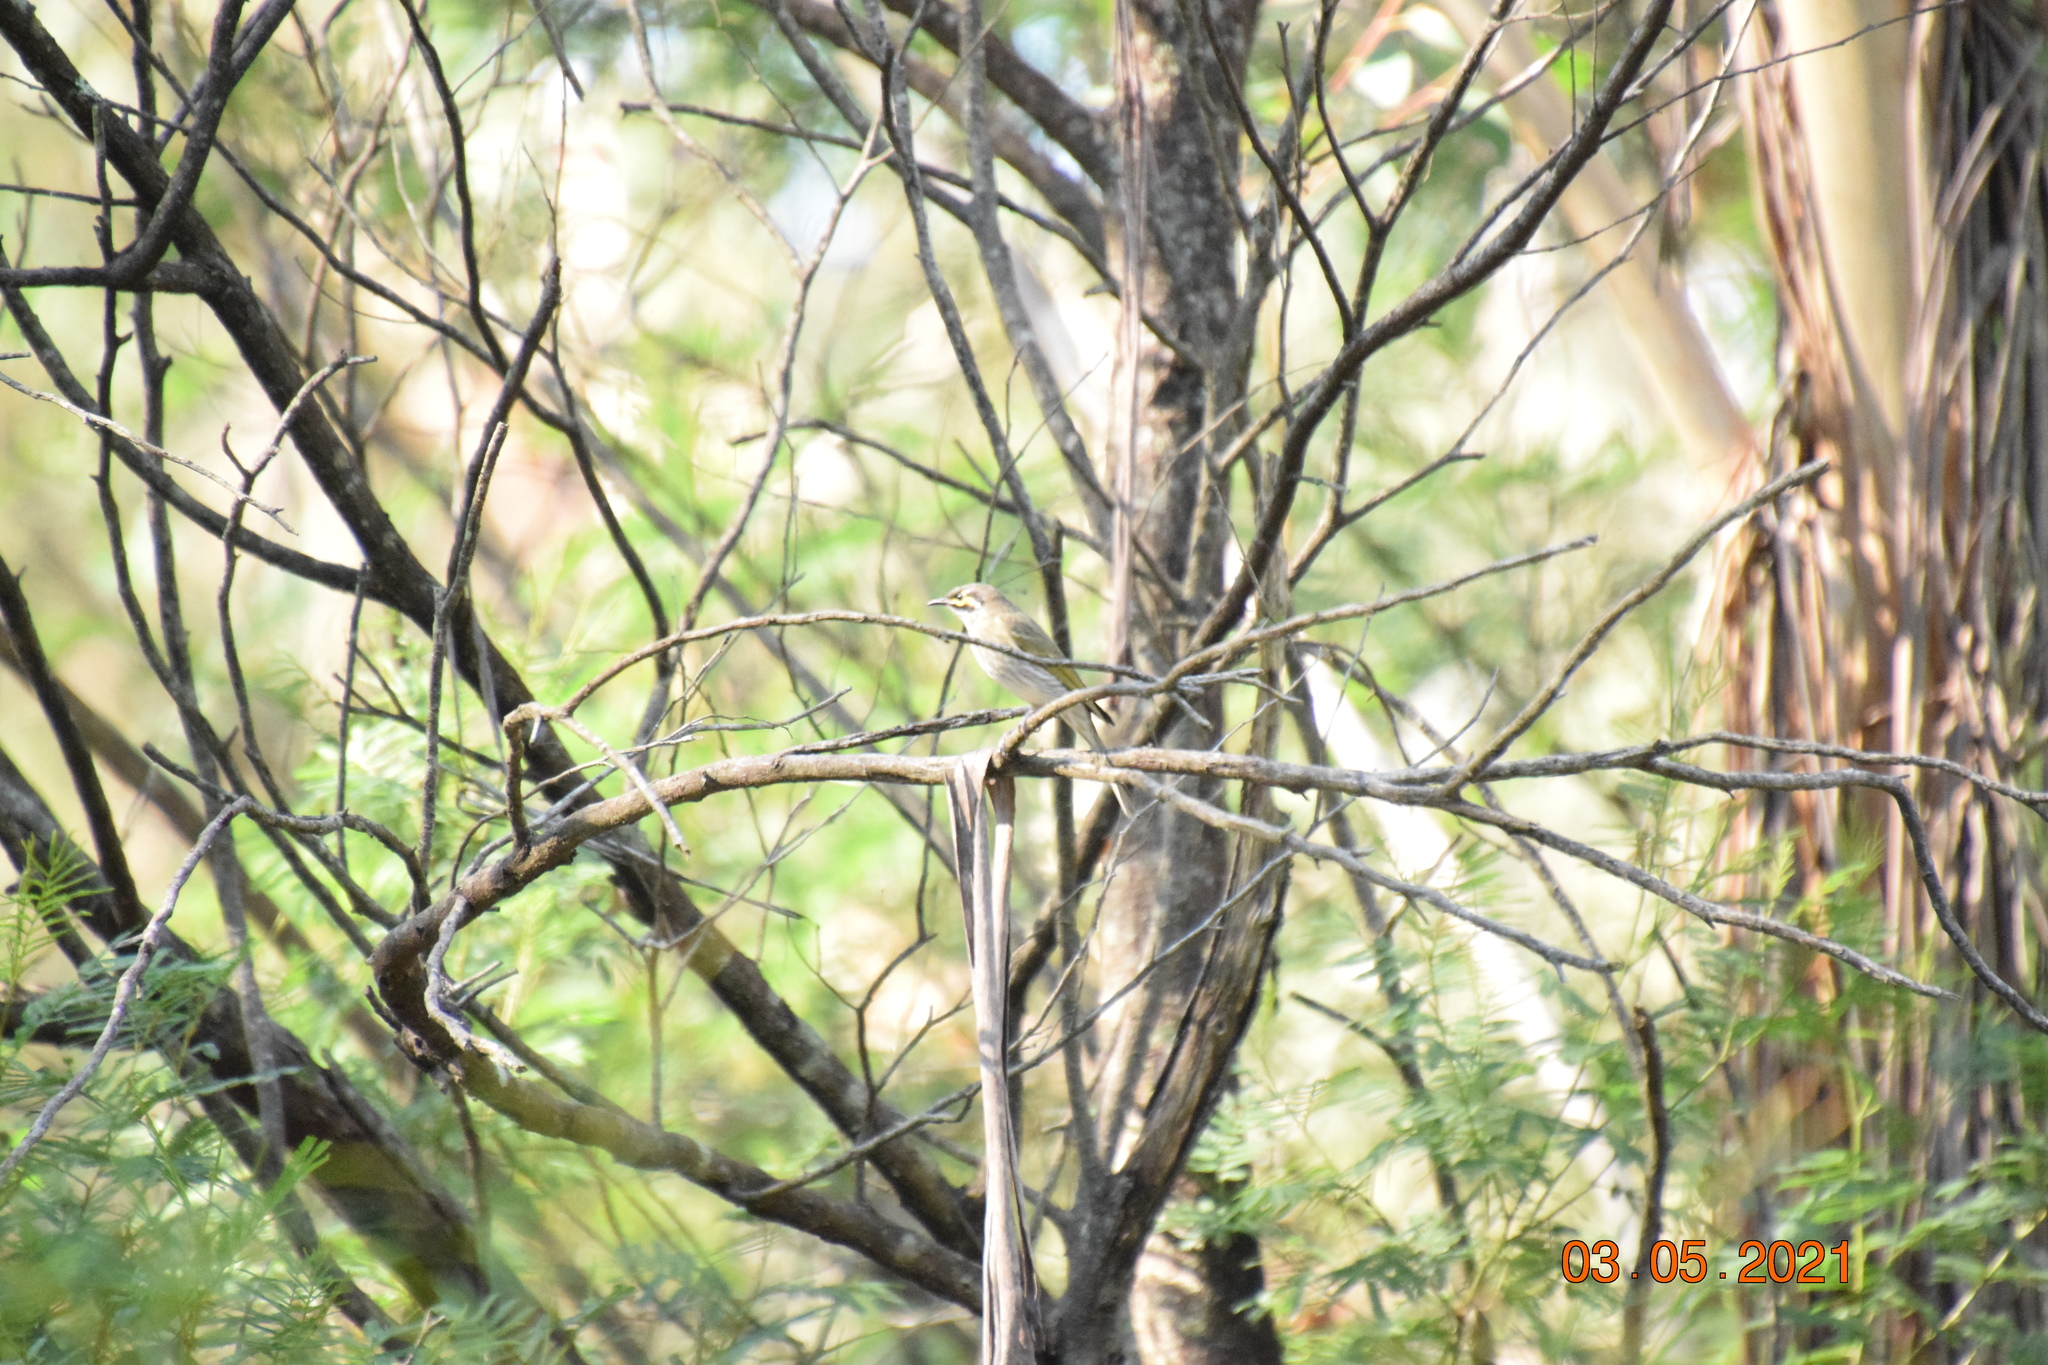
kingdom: Animalia
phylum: Chordata
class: Aves
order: Passeriformes
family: Meliphagidae
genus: Caligavis
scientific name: Caligavis chrysops
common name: Yellow-faced honeyeater
